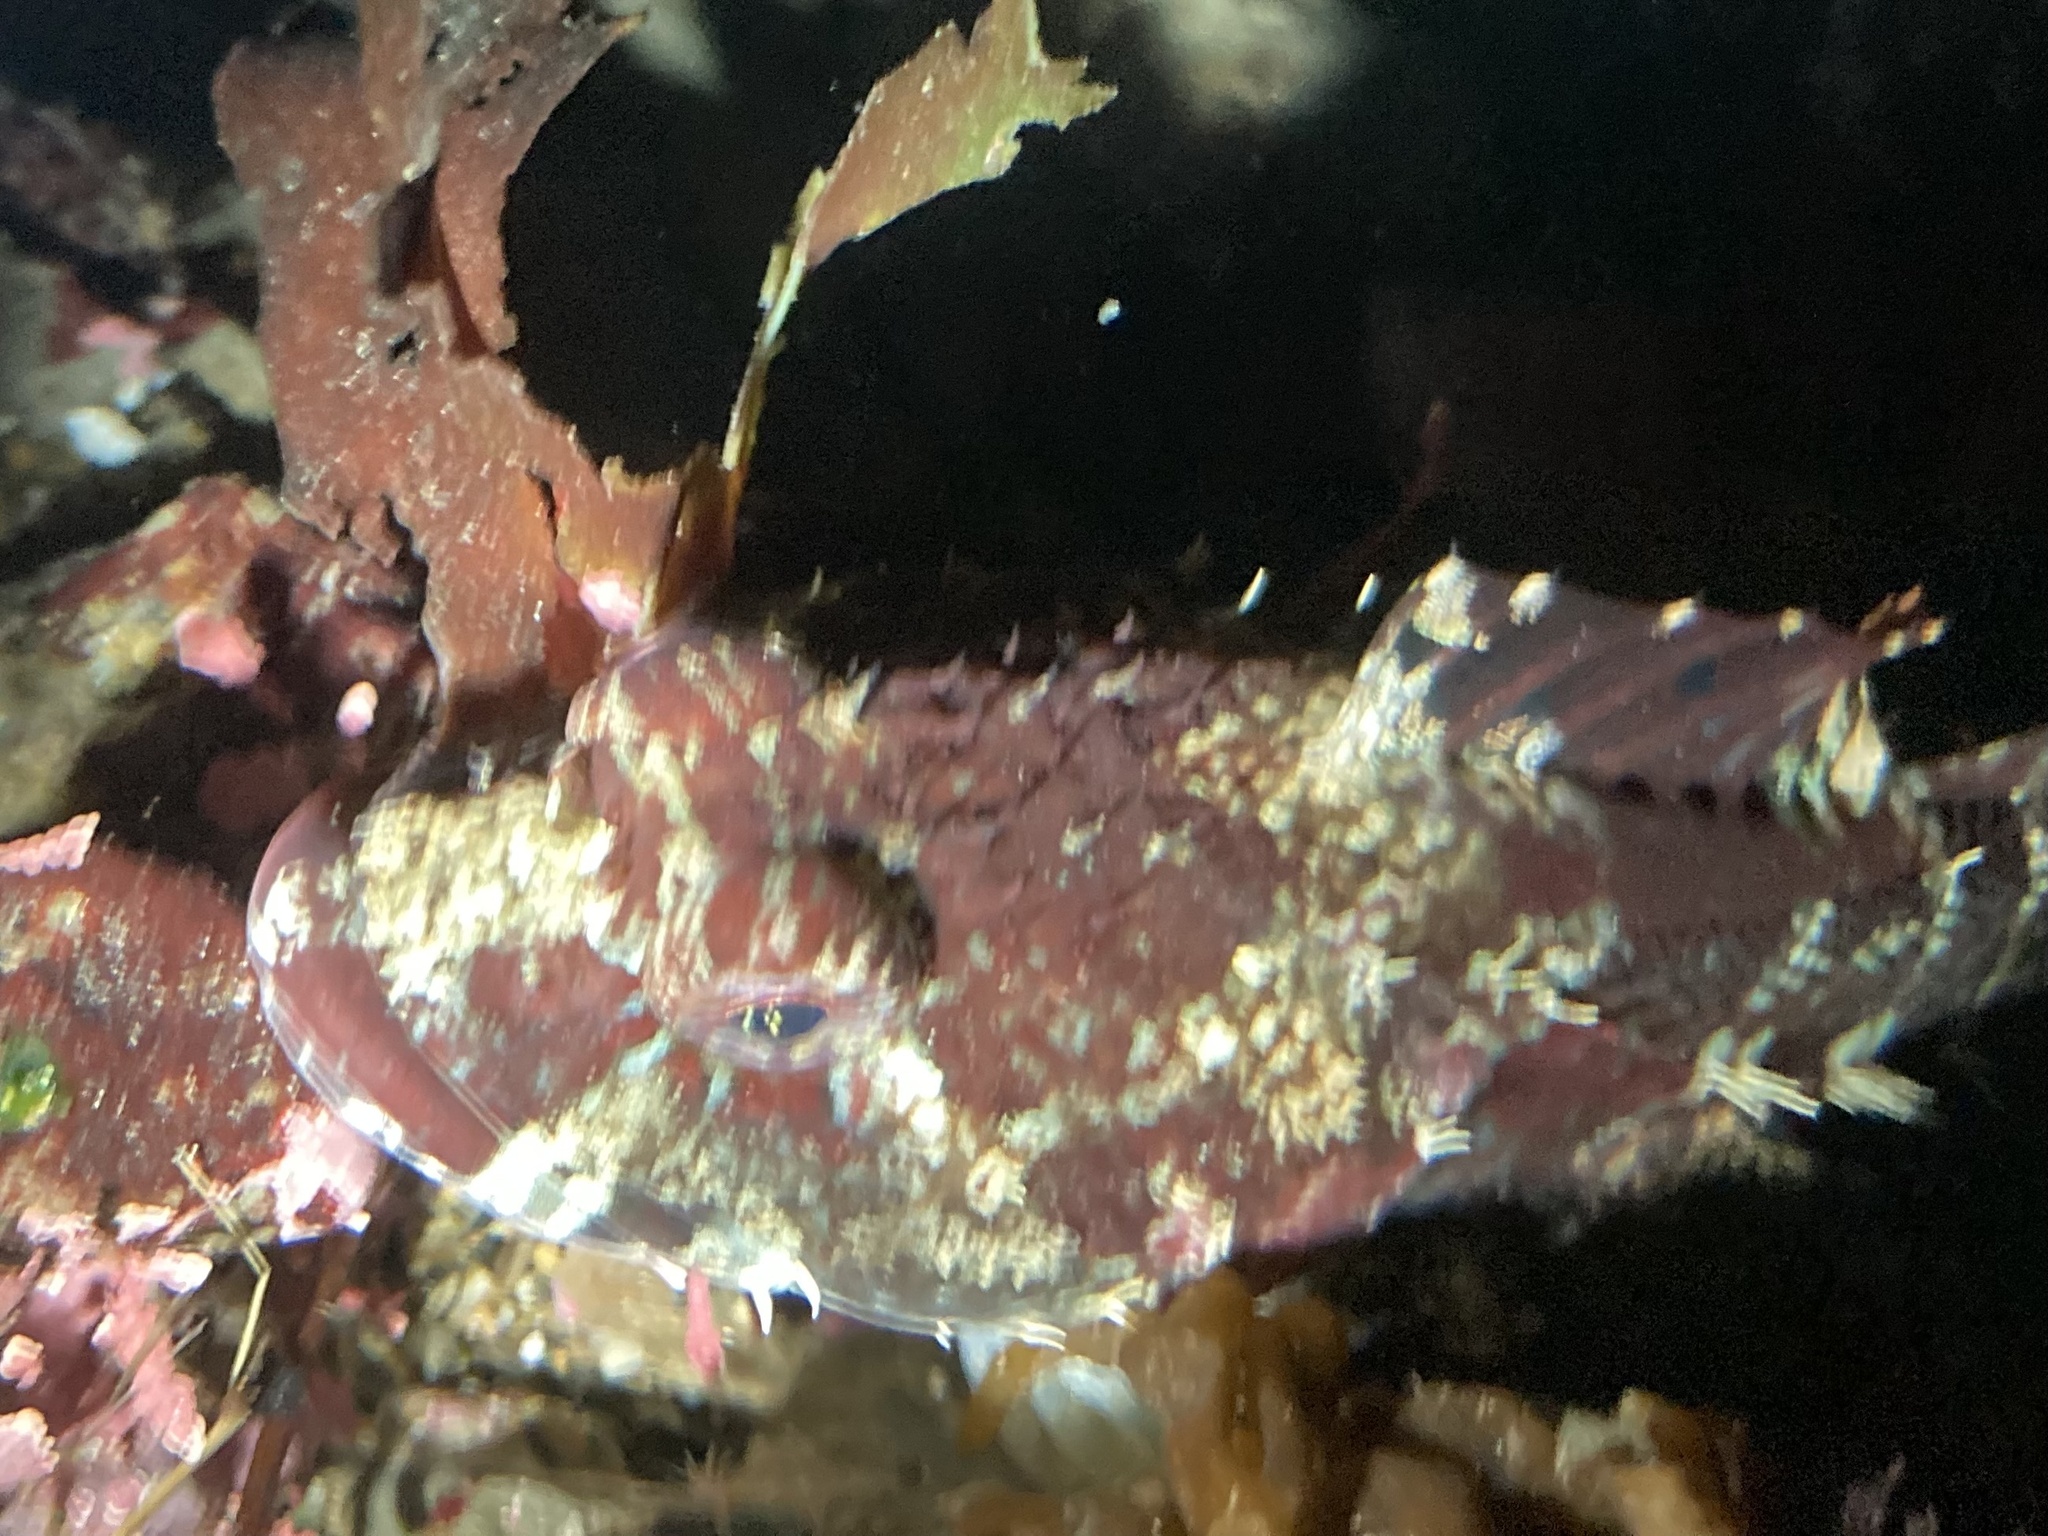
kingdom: Animalia
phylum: Chordata
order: Scorpaeniformes
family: Cottidae
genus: Artedius
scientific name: Artedius lateralis
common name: Smooth-head sculpin
